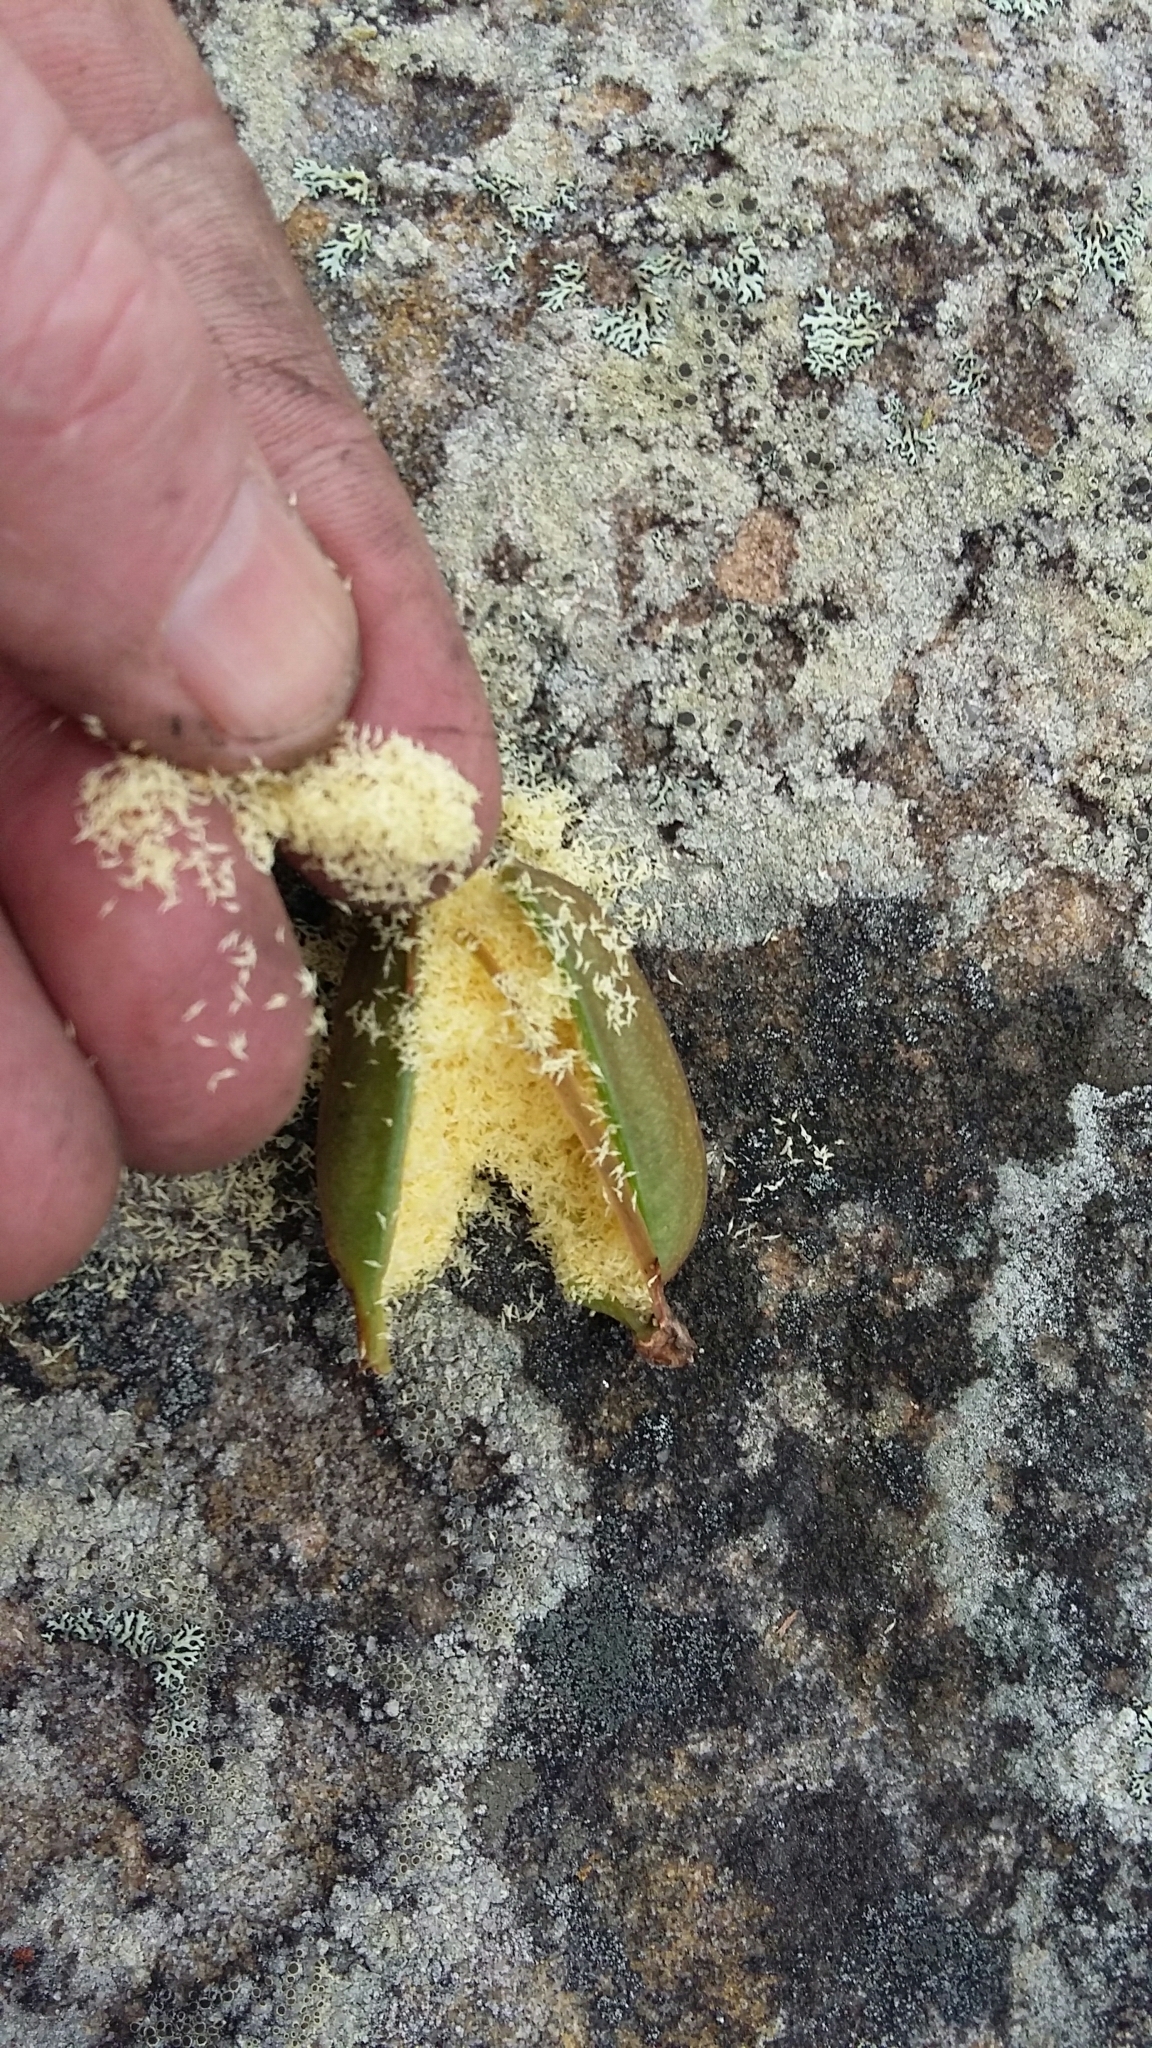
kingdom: Plantae
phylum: Tracheophyta
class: Liliopsida
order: Asparagales
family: Orchidaceae
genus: Cymbidium
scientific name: Cymbidium suave
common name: Snake orchid
